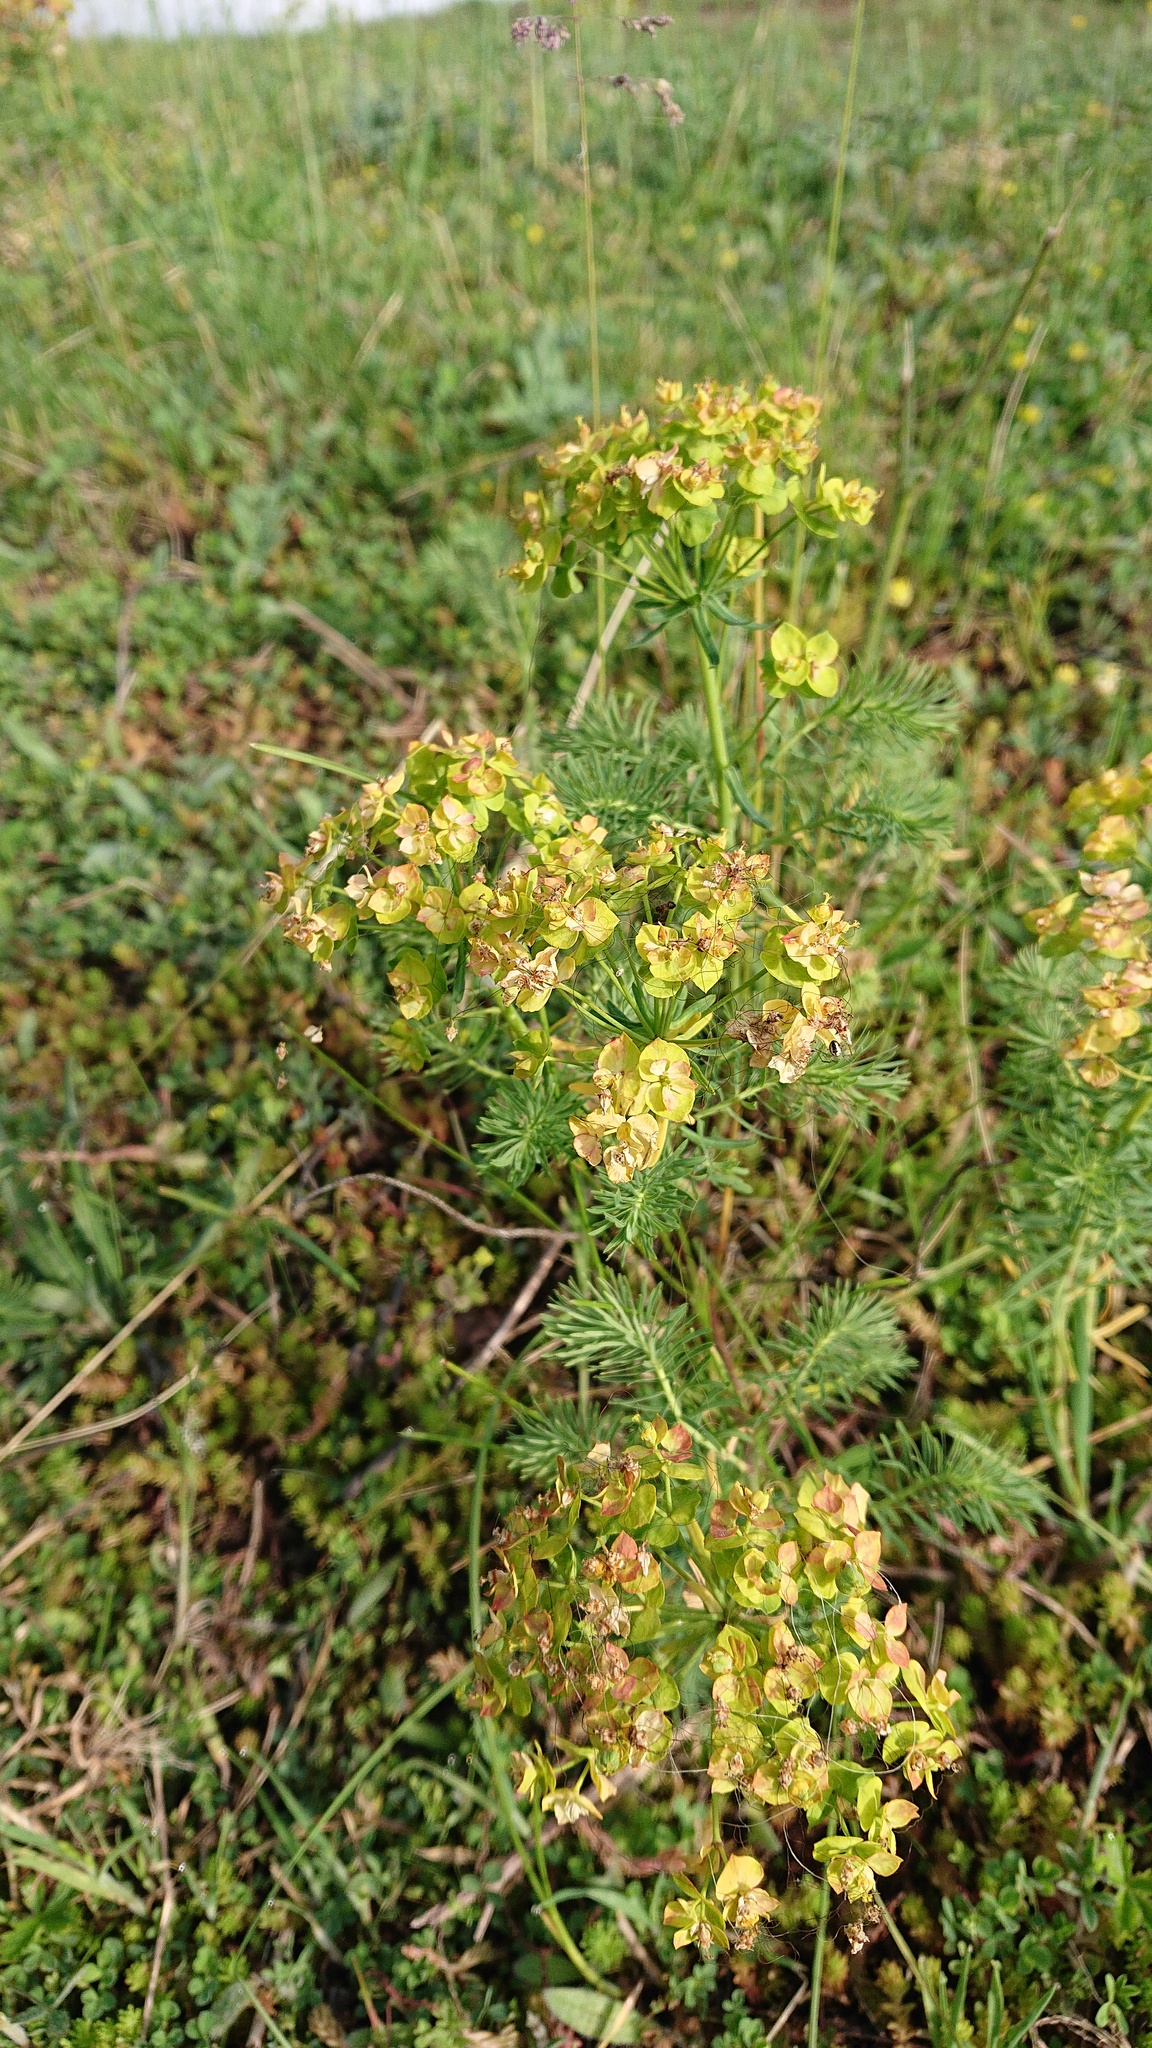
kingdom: Plantae
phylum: Tracheophyta
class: Magnoliopsida
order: Malpighiales
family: Euphorbiaceae
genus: Euphorbia
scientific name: Euphorbia cyparissias
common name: Cypress spurge
